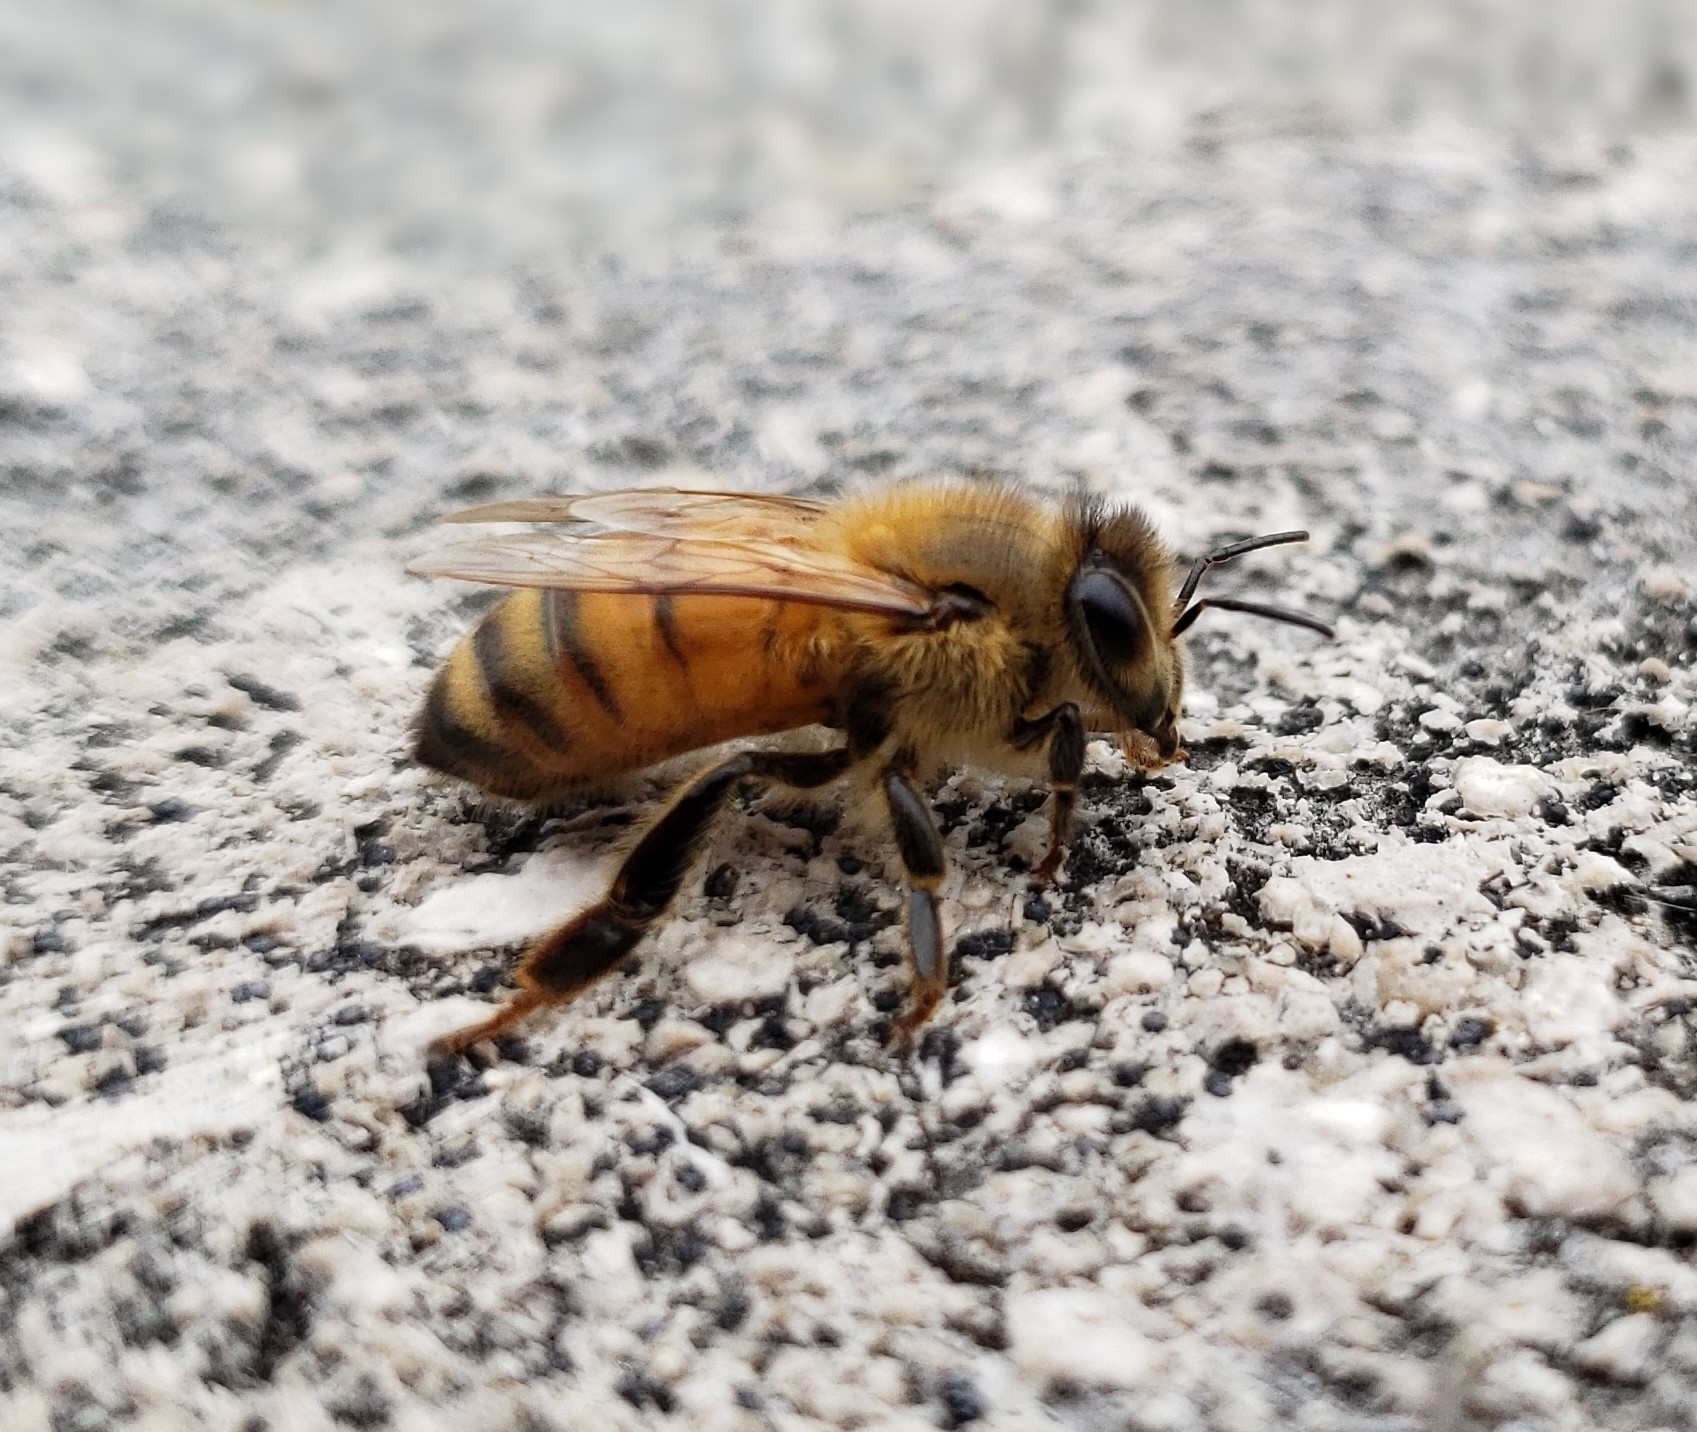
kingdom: Animalia
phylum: Arthropoda
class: Insecta
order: Hymenoptera
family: Apidae
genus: Apis
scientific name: Apis mellifera
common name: Honey bee
